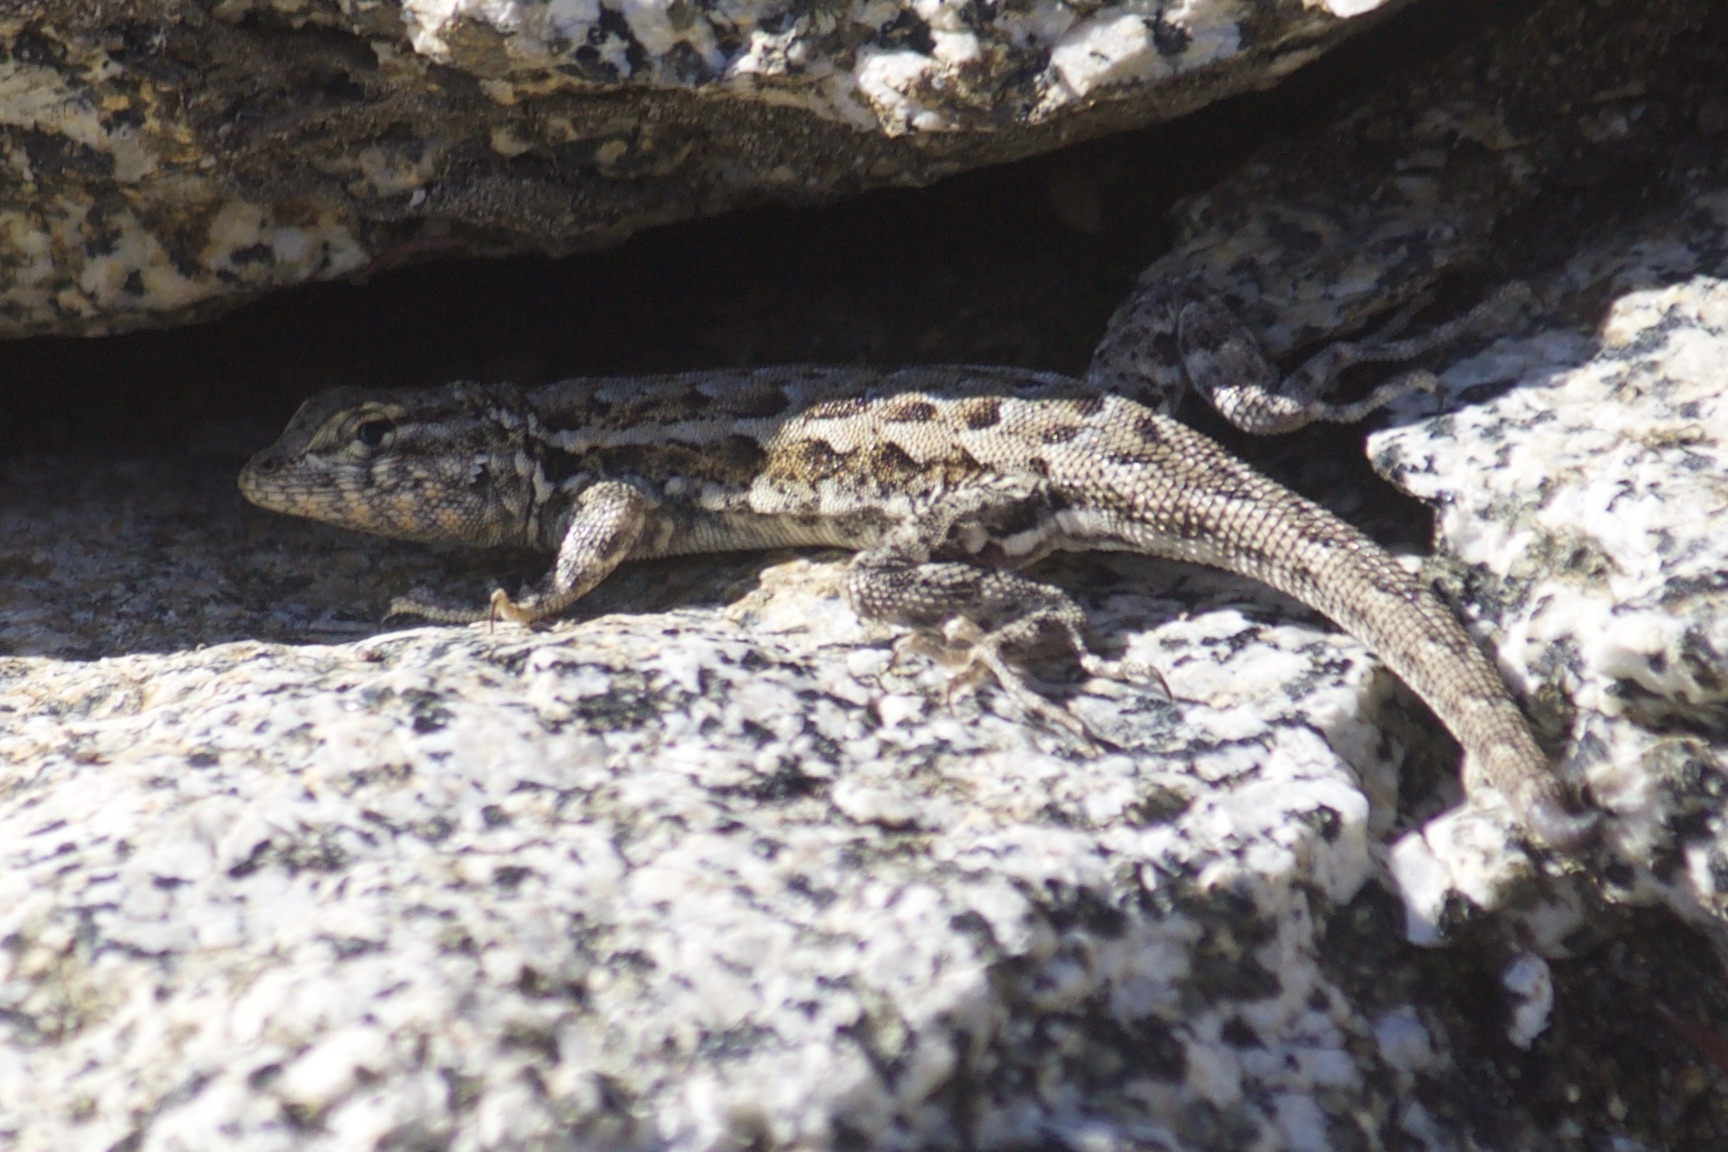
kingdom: Animalia
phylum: Chordata
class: Squamata
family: Phrynosomatidae
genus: Uta
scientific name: Uta stansburiana
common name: Side-blotched lizard
